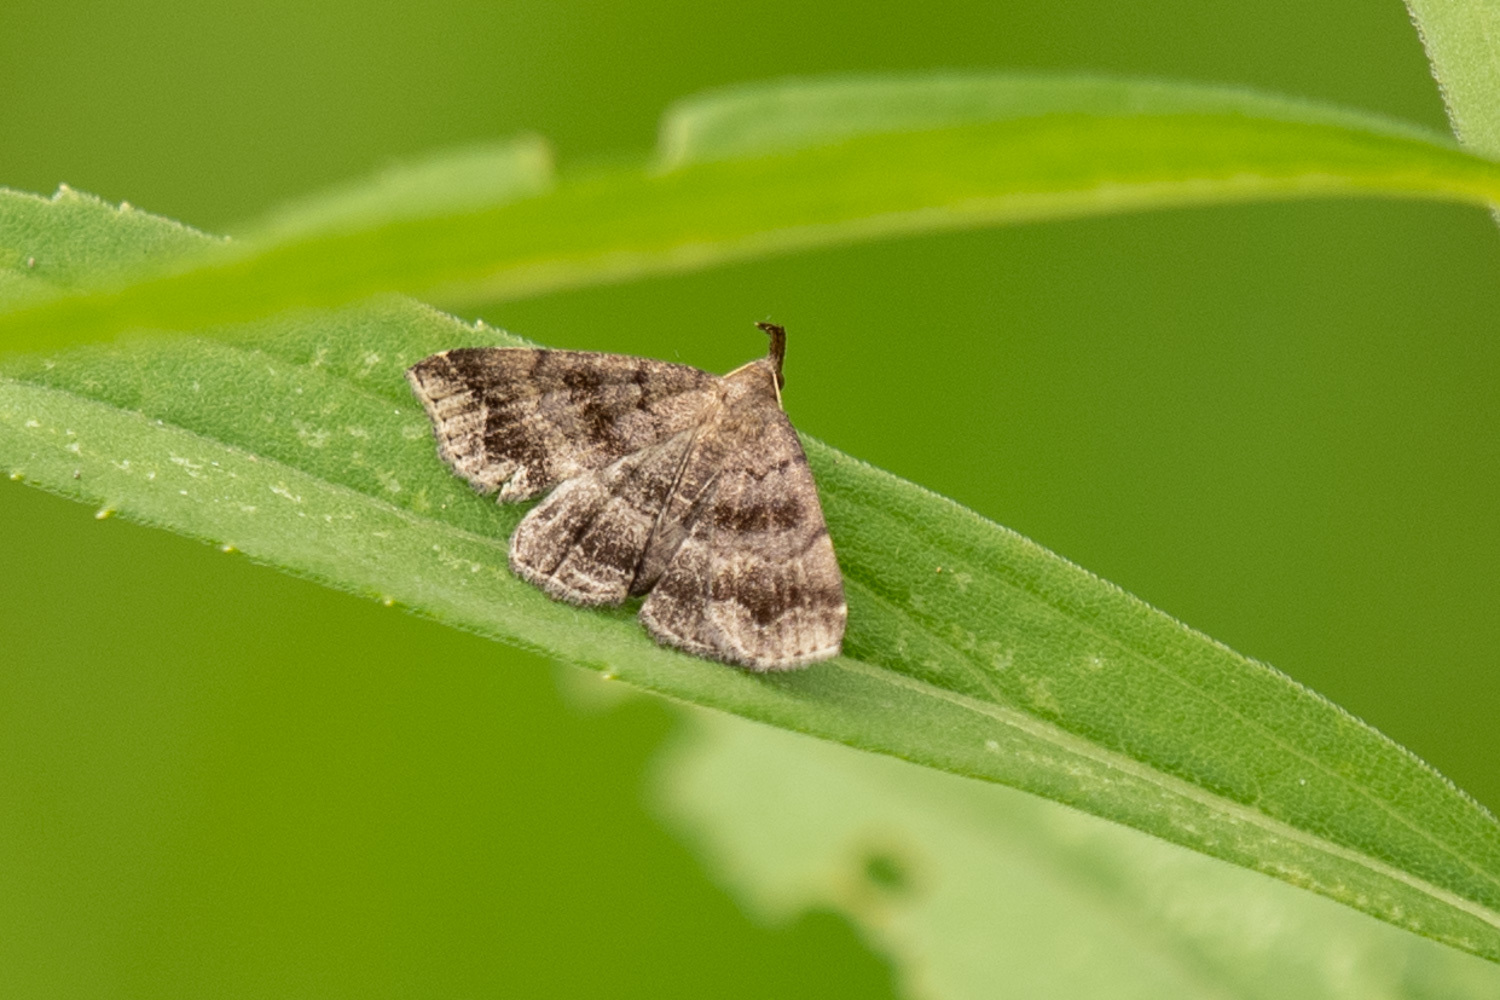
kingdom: Animalia
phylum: Arthropoda
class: Insecta
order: Lepidoptera
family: Erebidae
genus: Phalaenostola
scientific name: Phalaenostola larentioides
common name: Black-banded owlet
